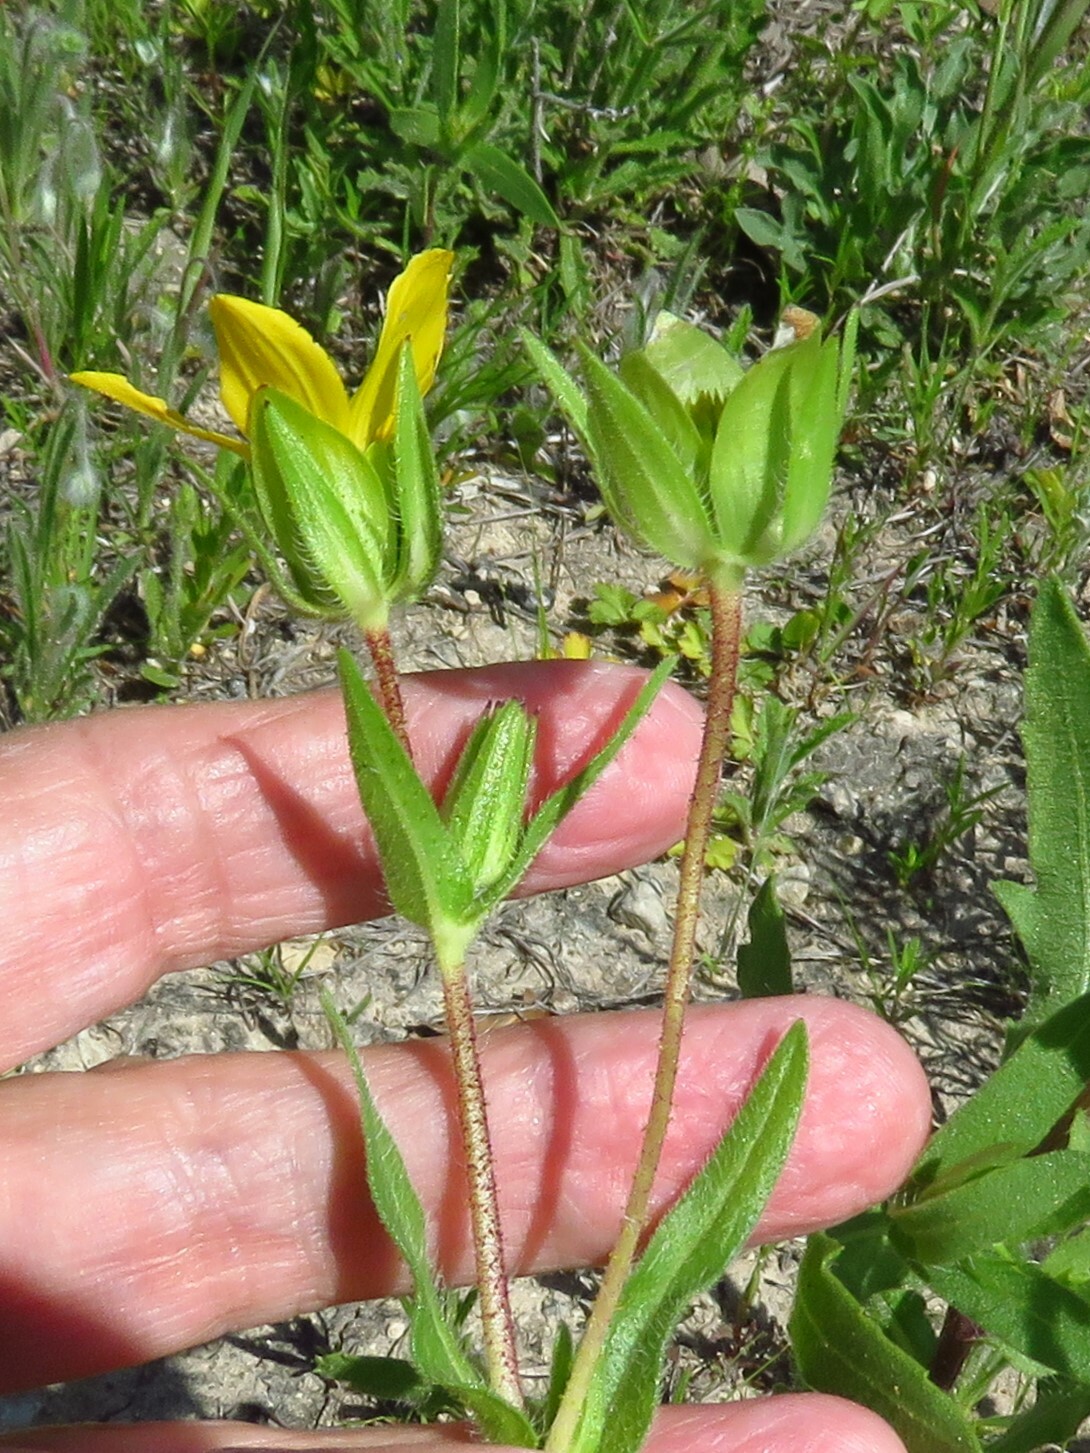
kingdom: Plantae
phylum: Tracheophyta
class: Magnoliopsida
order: Asterales
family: Asteraceae
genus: Lindheimera
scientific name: Lindheimera texana
